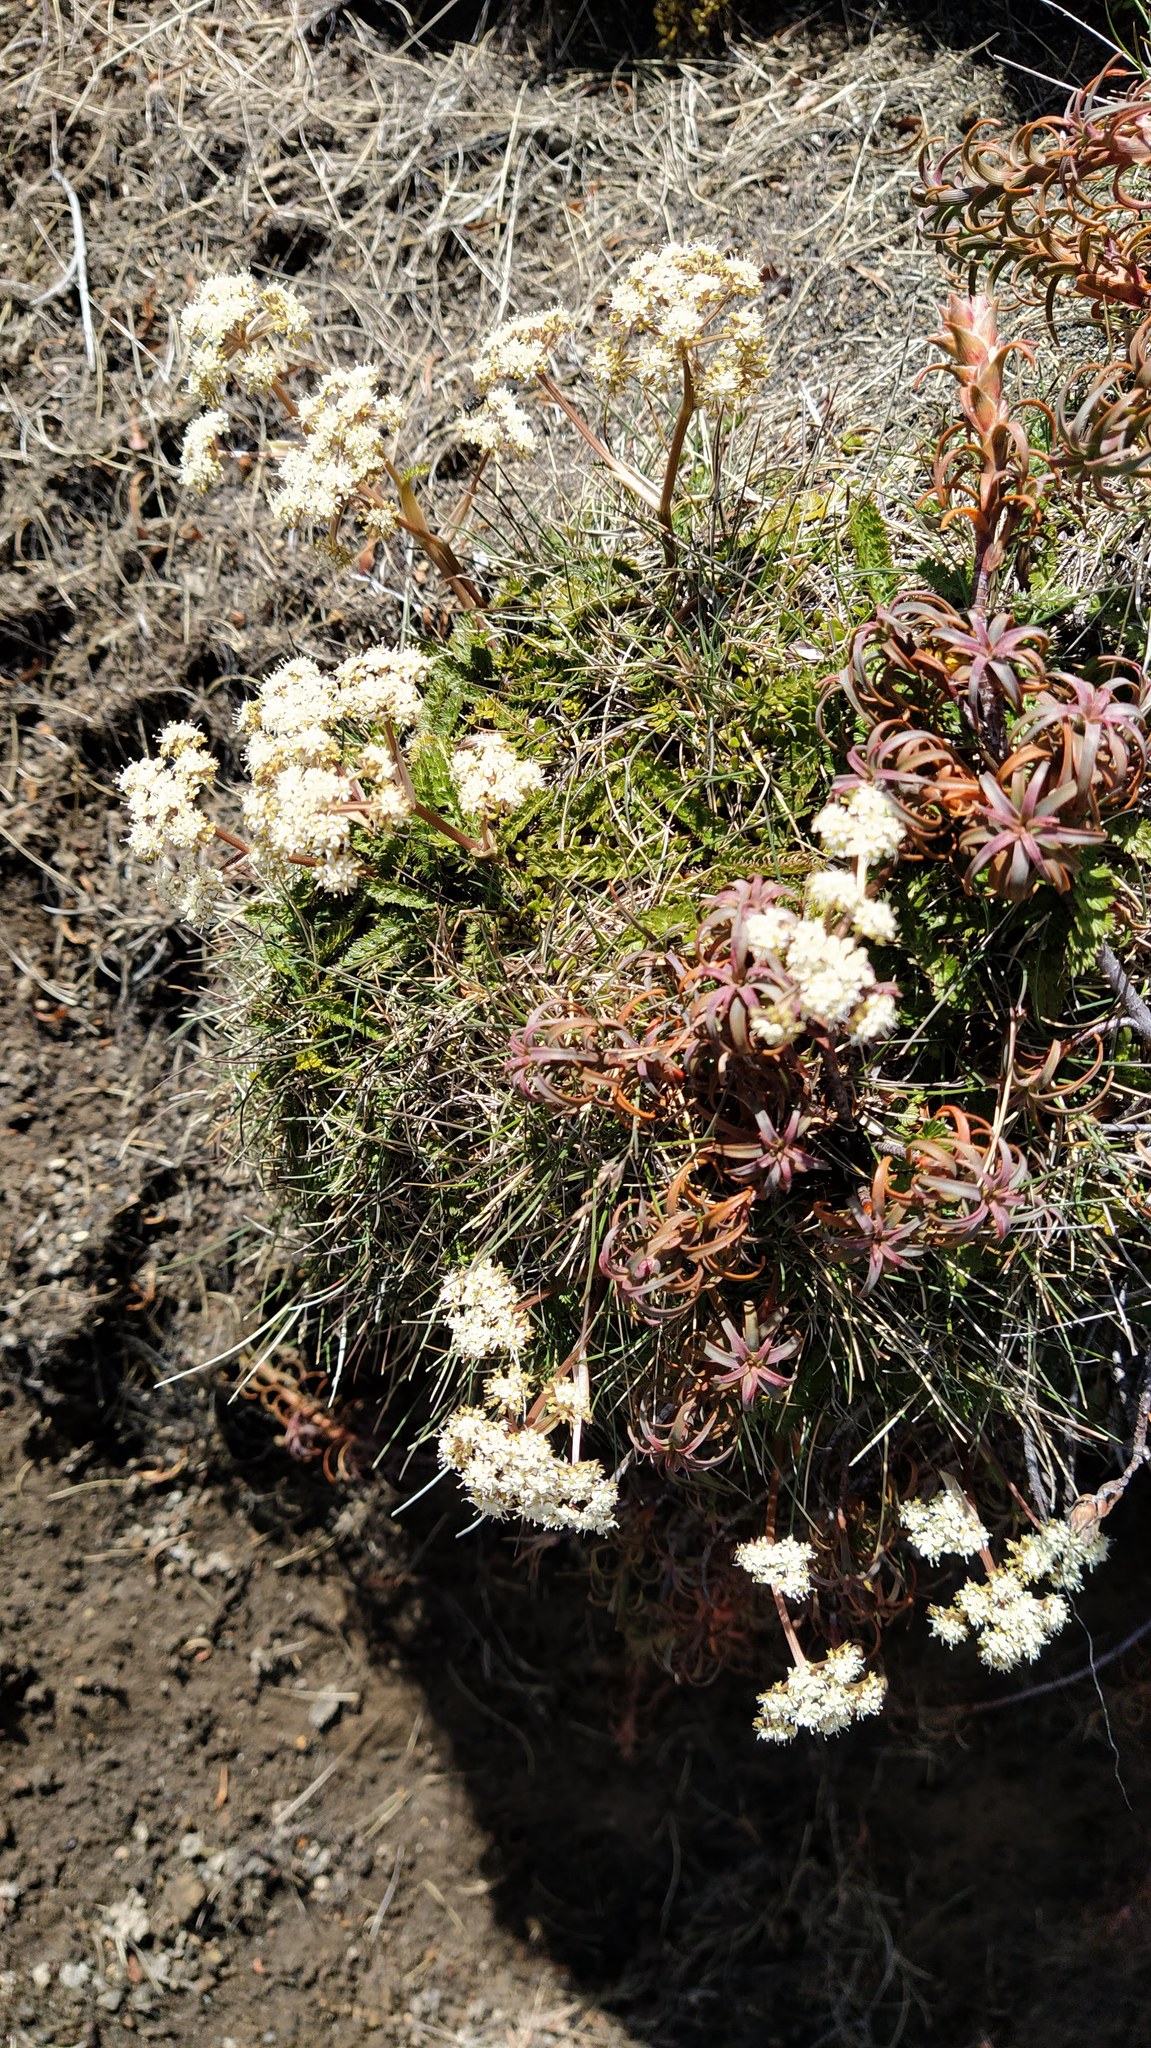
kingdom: Plantae
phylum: Tracheophyta
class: Magnoliopsida
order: Apiales
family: Apiaceae
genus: Anisotome
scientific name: Anisotome aromatica
